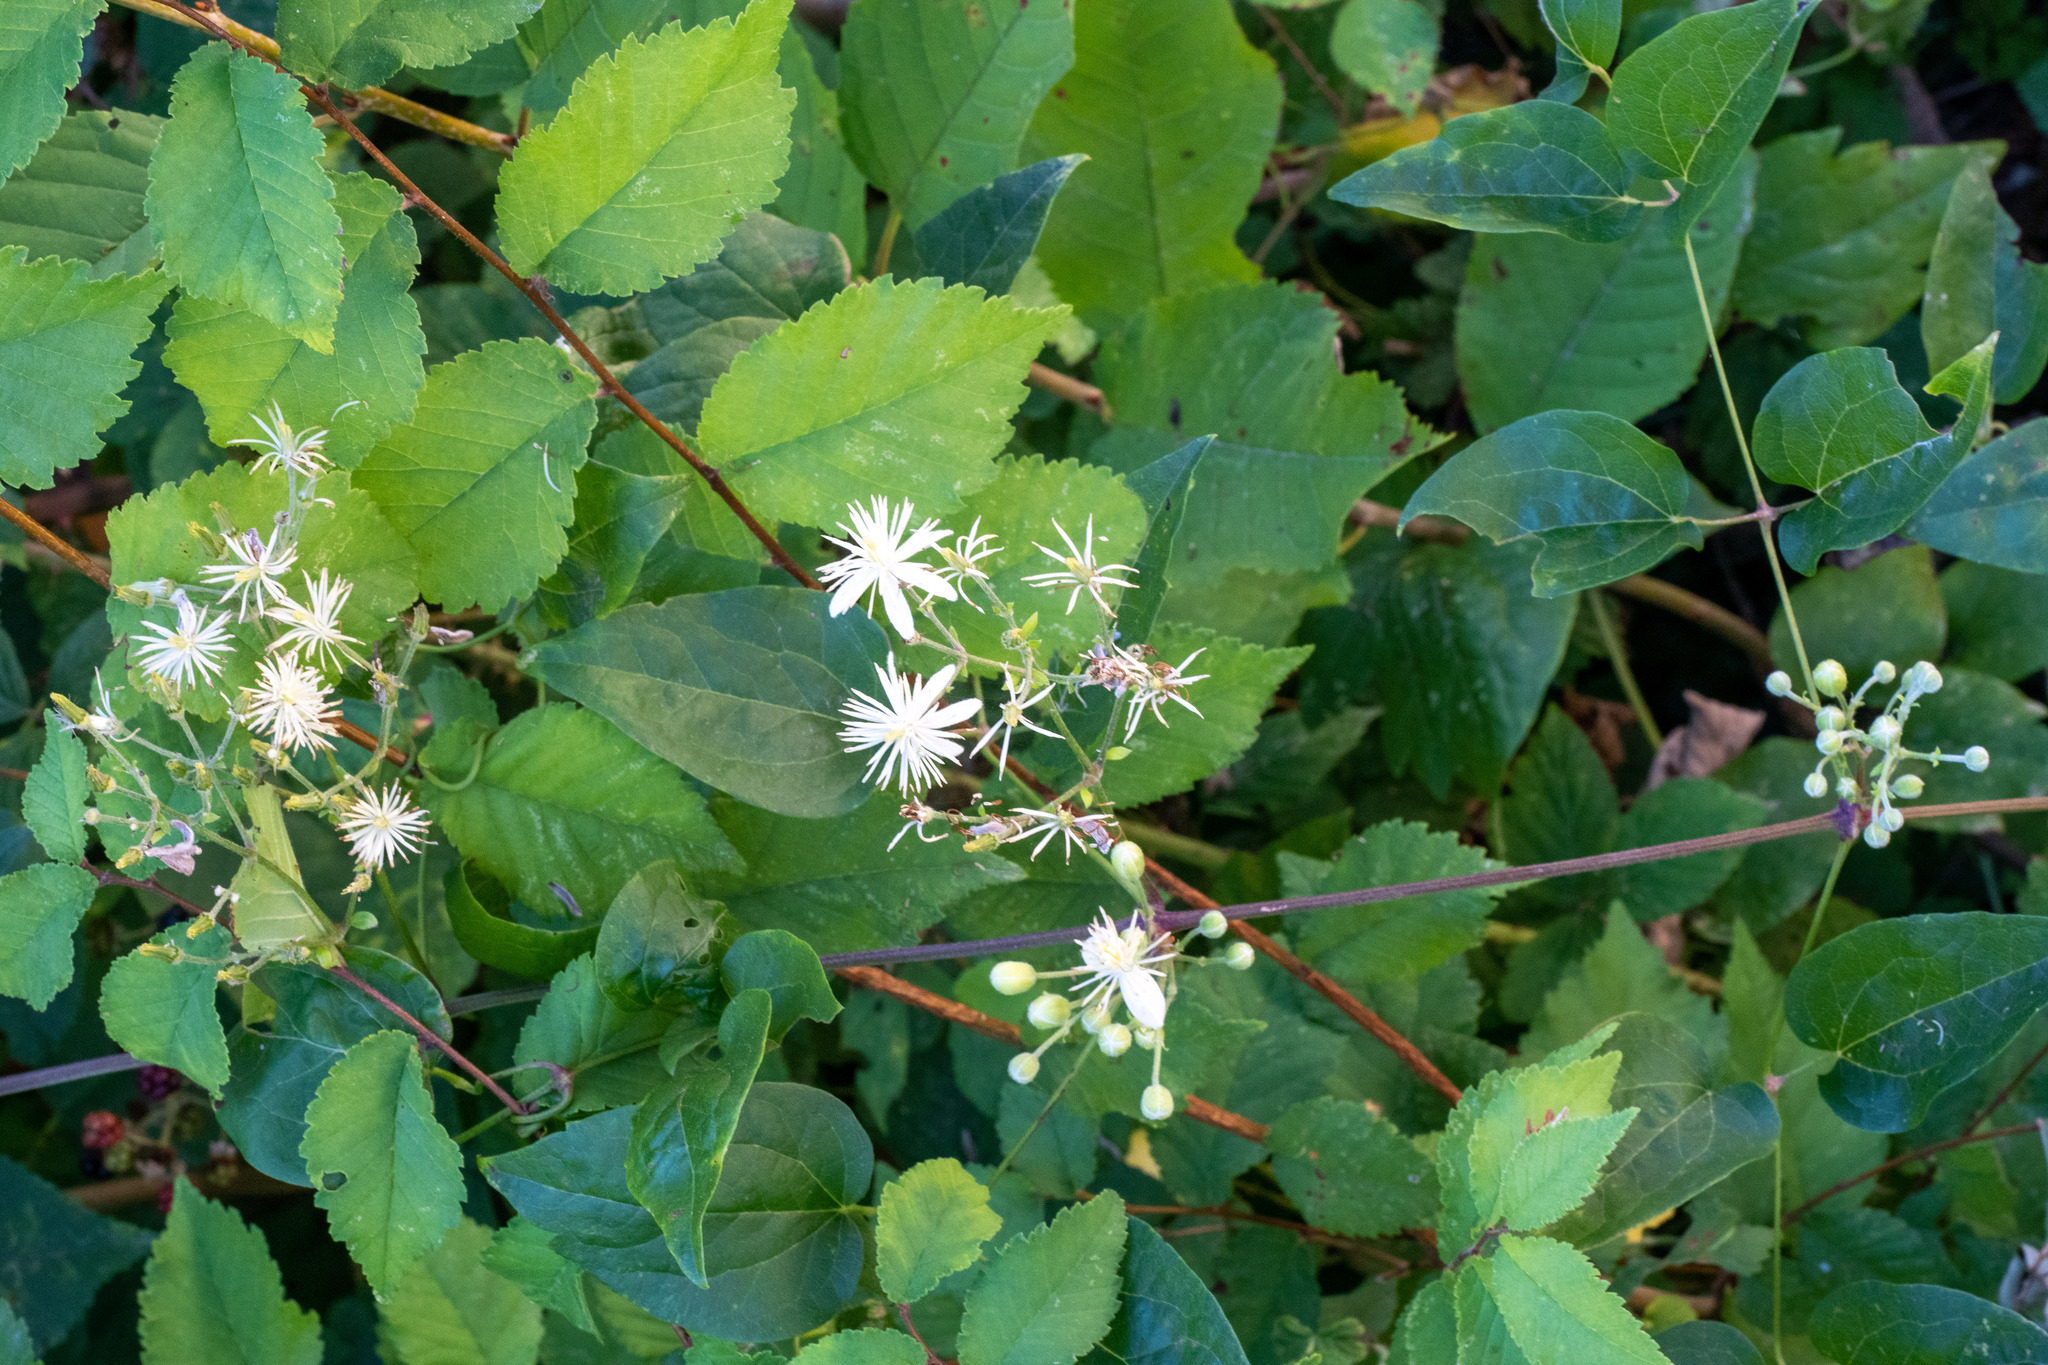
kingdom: Plantae
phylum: Tracheophyta
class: Magnoliopsida
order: Ranunculales
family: Ranunculaceae
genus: Clematis
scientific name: Clematis vitalba
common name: Evergreen clematis
